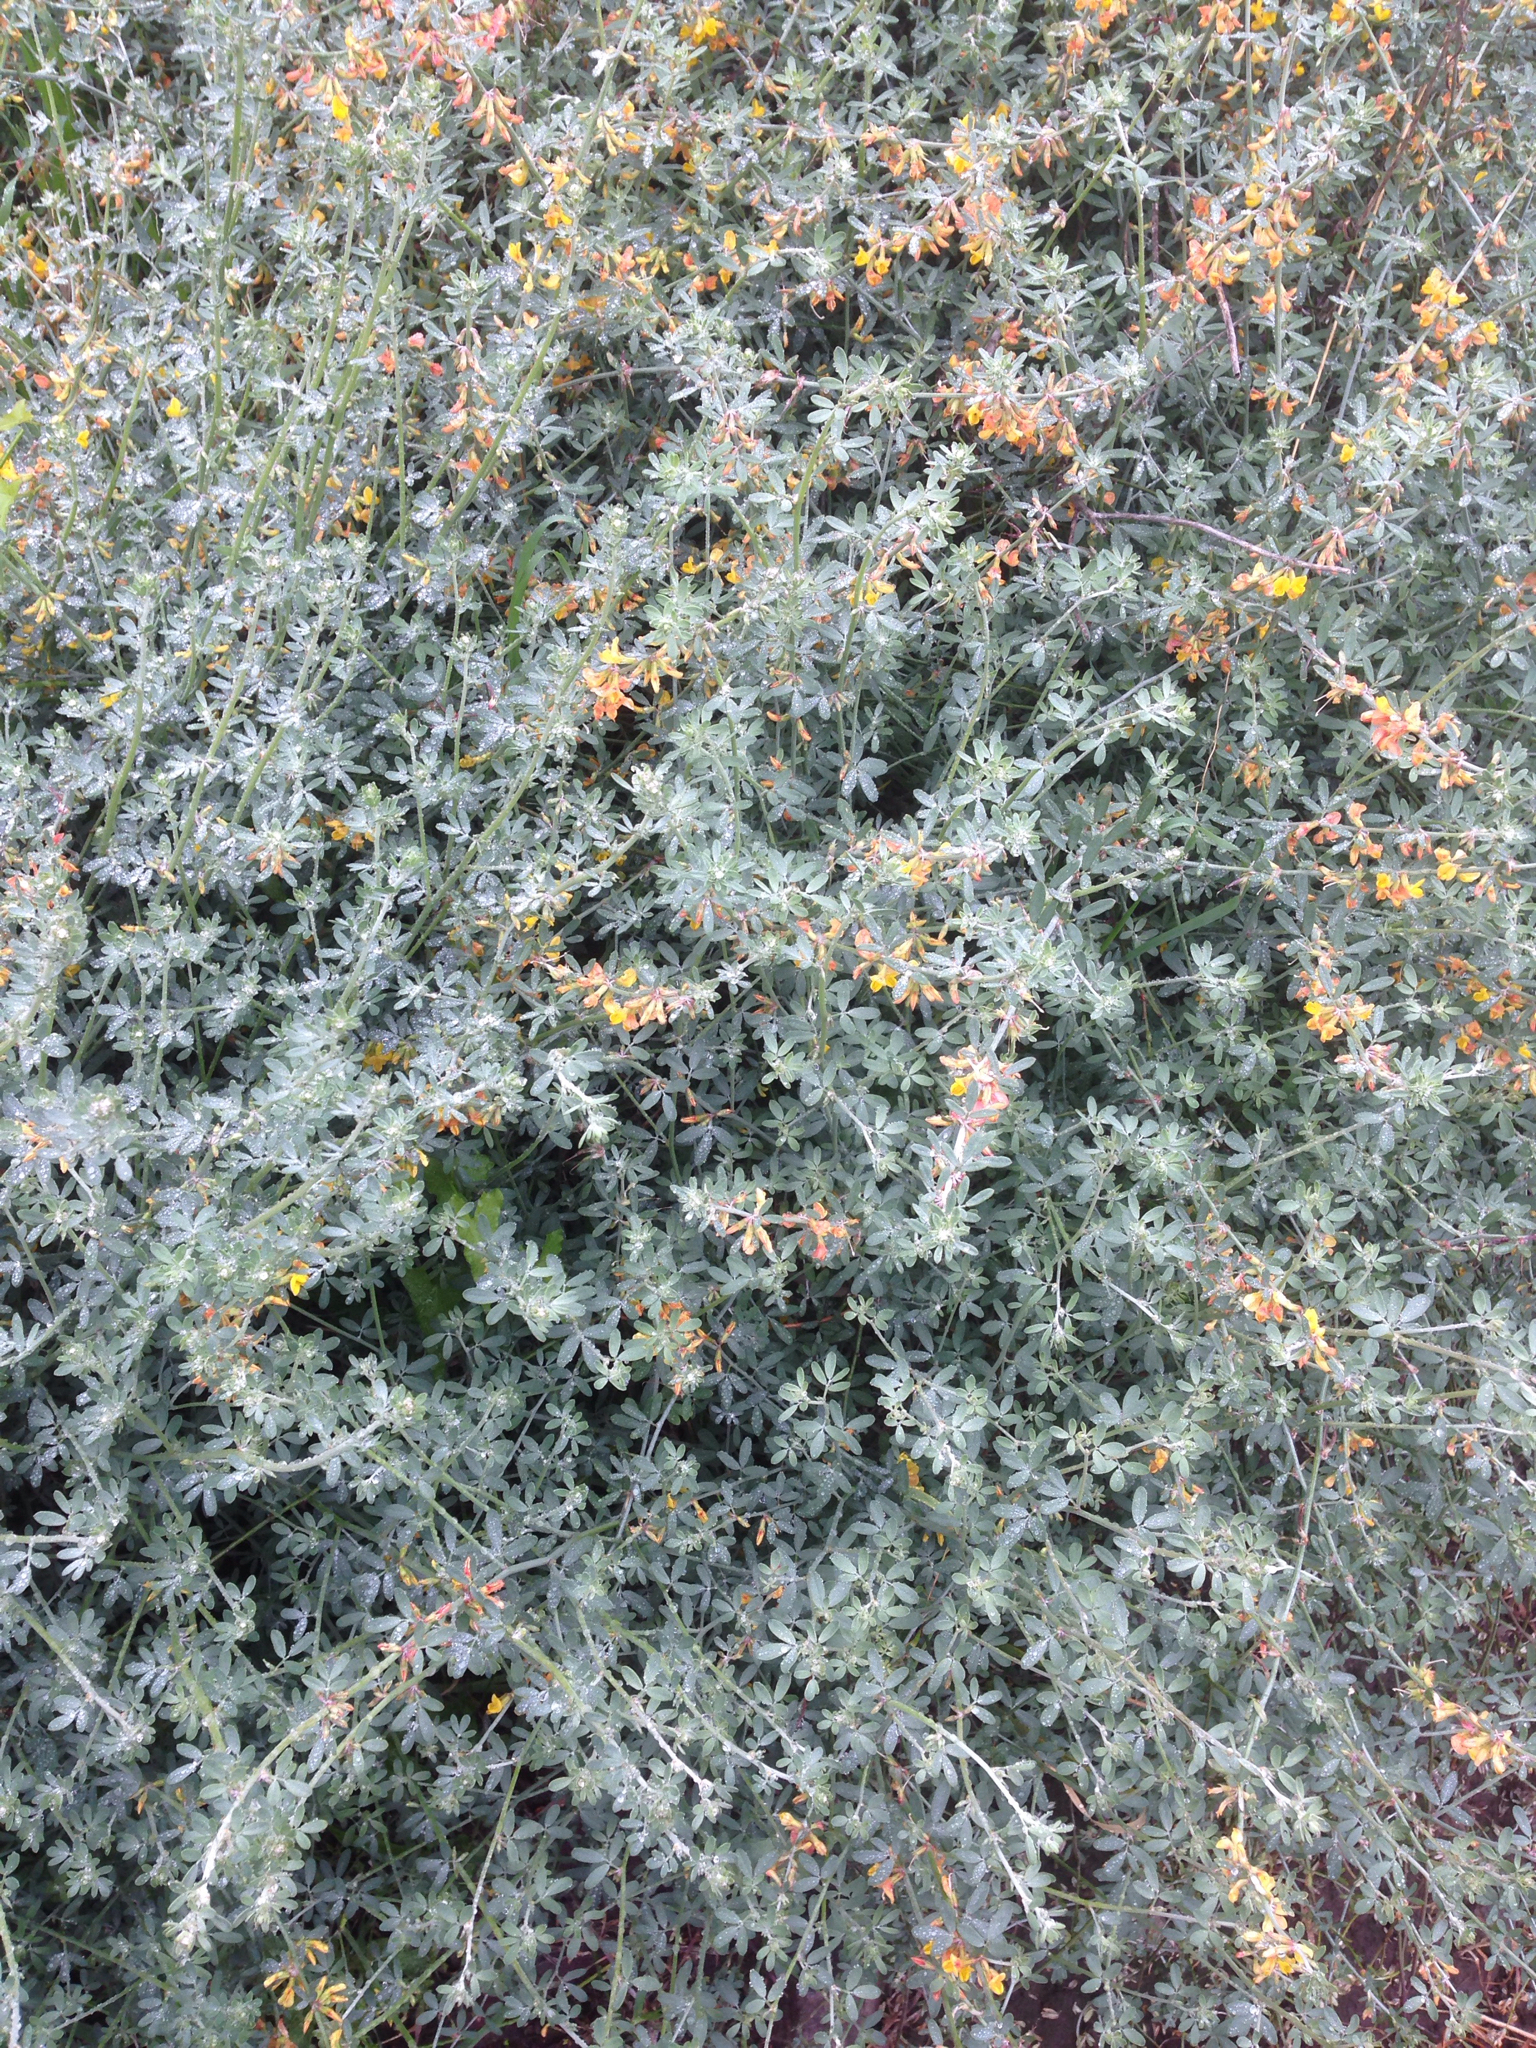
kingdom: Plantae
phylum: Tracheophyta
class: Magnoliopsida
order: Fabales
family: Fabaceae
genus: Acmispon
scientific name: Acmispon glaber
